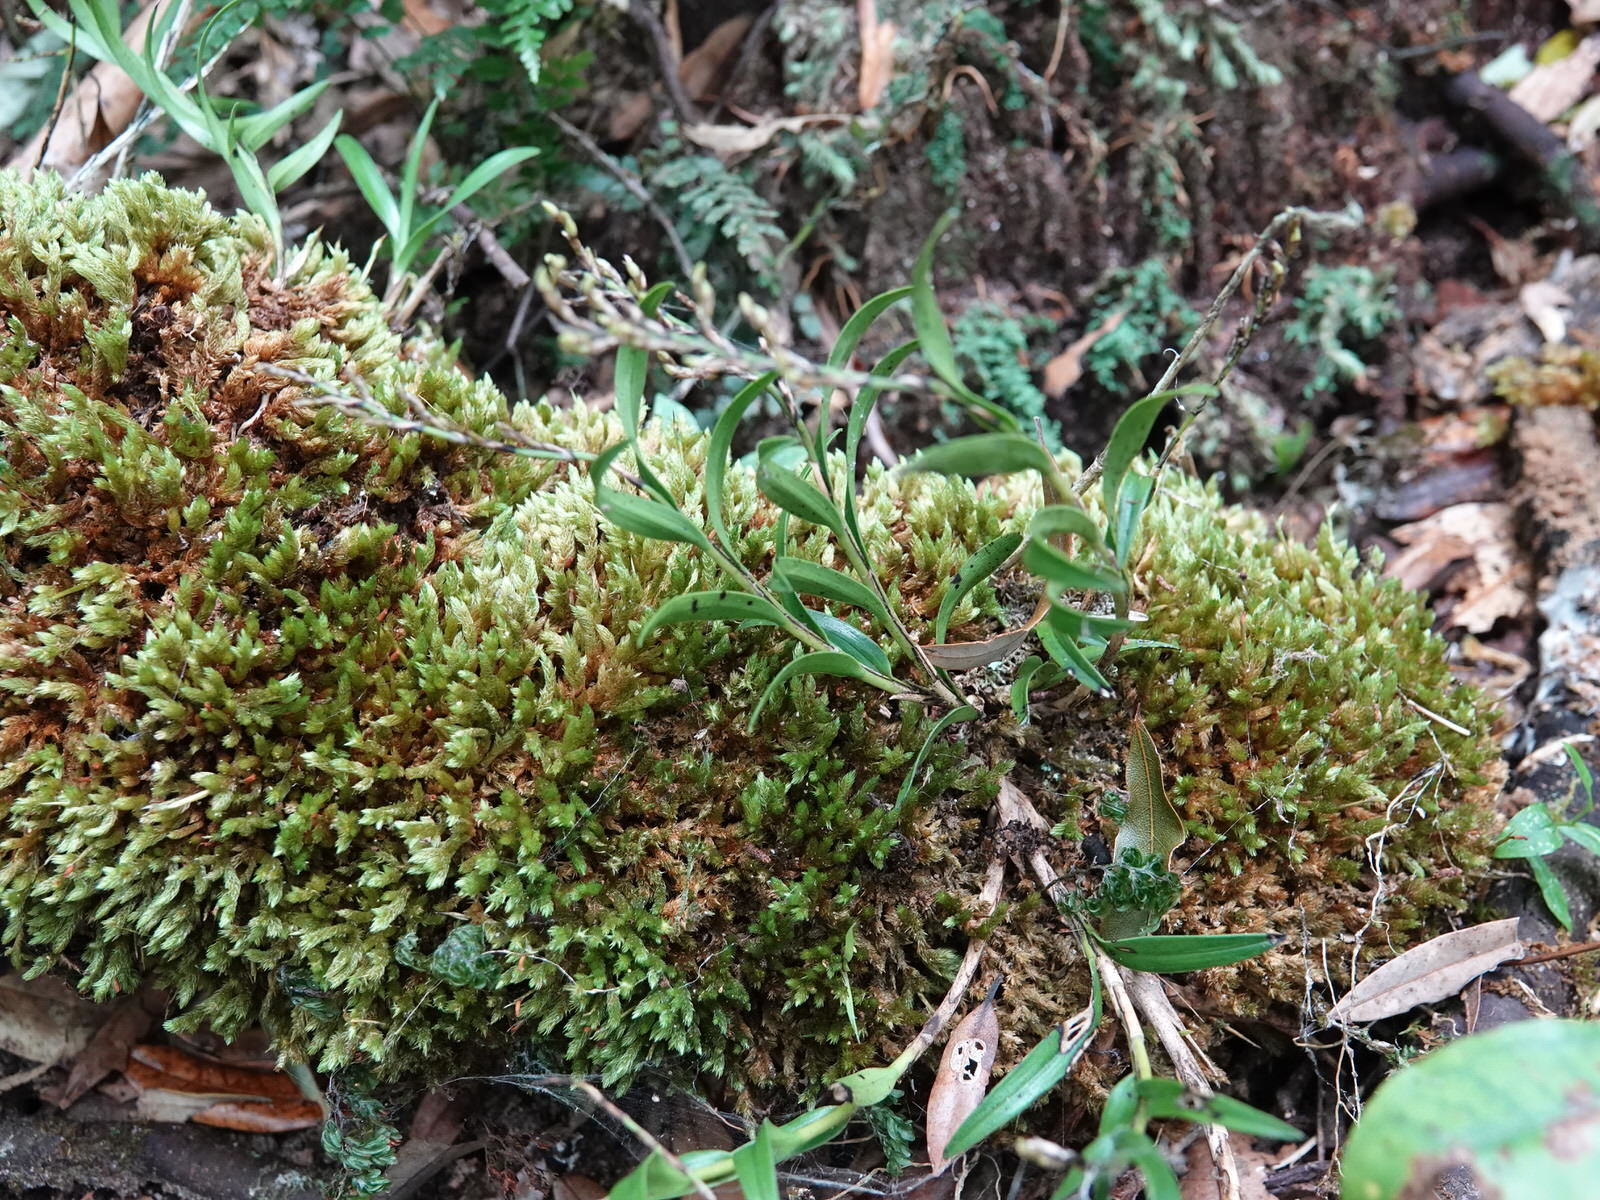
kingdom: Plantae
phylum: Tracheophyta
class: Liliopsida
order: Asparagales
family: Orchidaceae
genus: Earina
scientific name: Earina autumnalis
